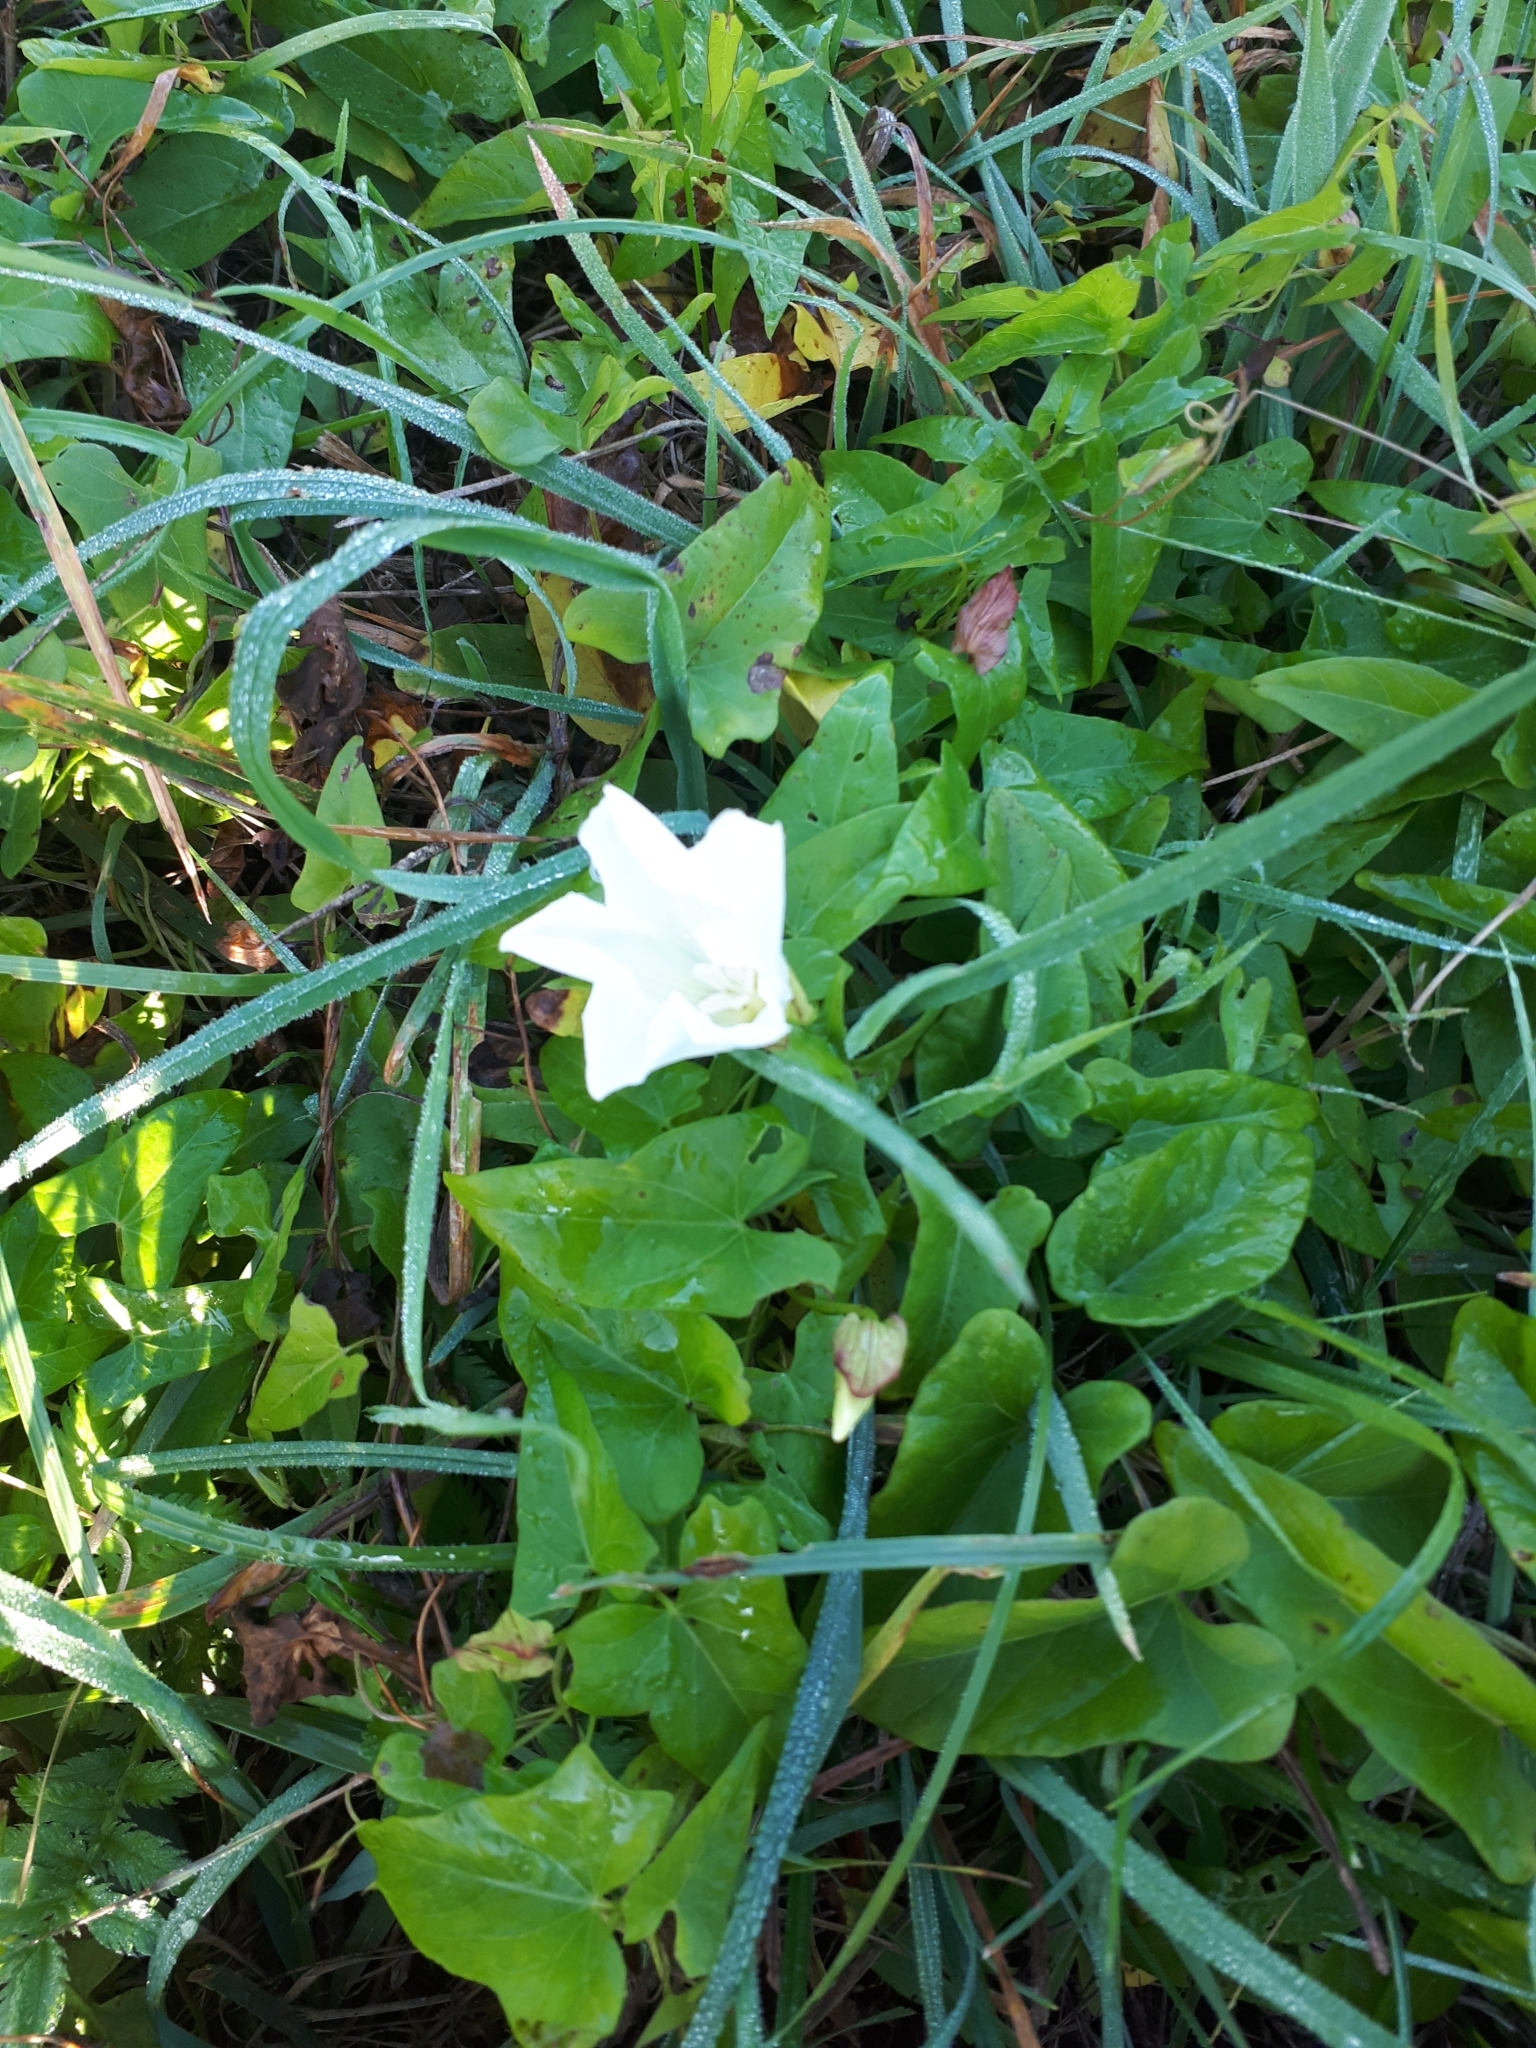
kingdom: Plantae
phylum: Tracheophyta
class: Magnoliopsida
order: Solanales
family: Convolvulaceae
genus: Calystegia
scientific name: Calystegia sepium
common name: Hedge bindweed
